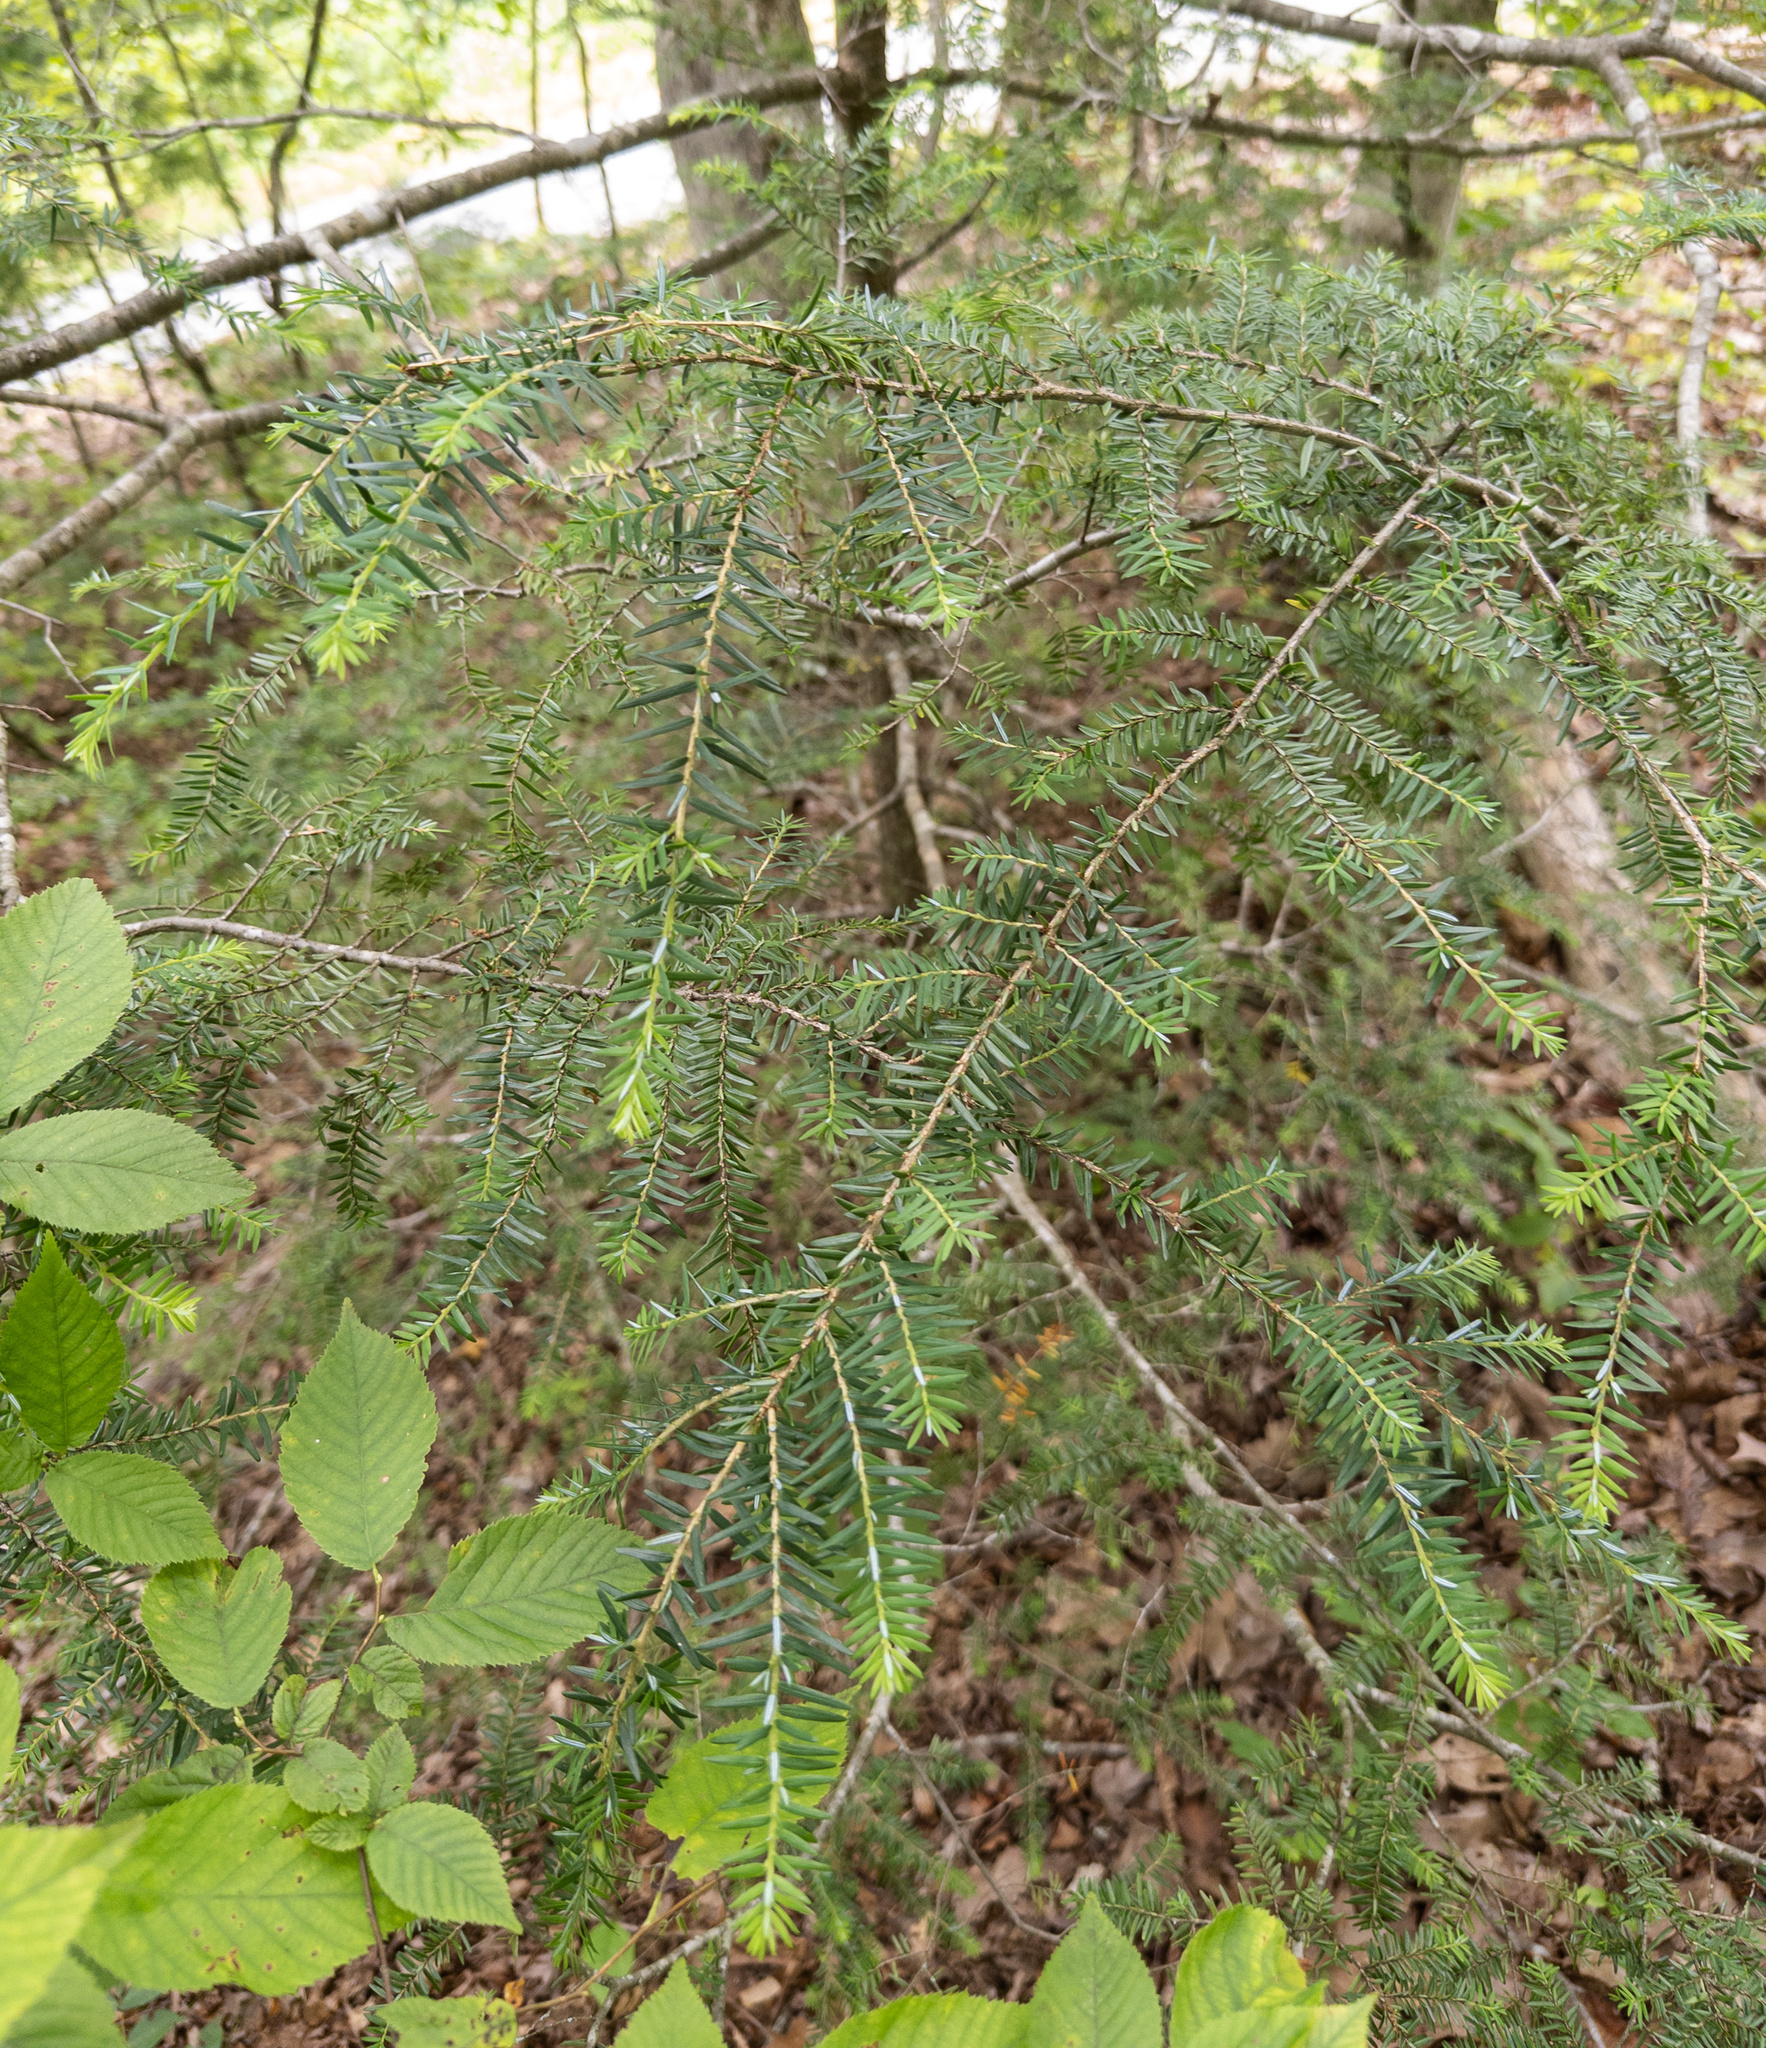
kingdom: Plantae
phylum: Tracheophyta
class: Pinopsida
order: Pinales
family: Pinaceae
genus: Tsuga
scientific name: Tsuga canadensis
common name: Eastern hemlock
